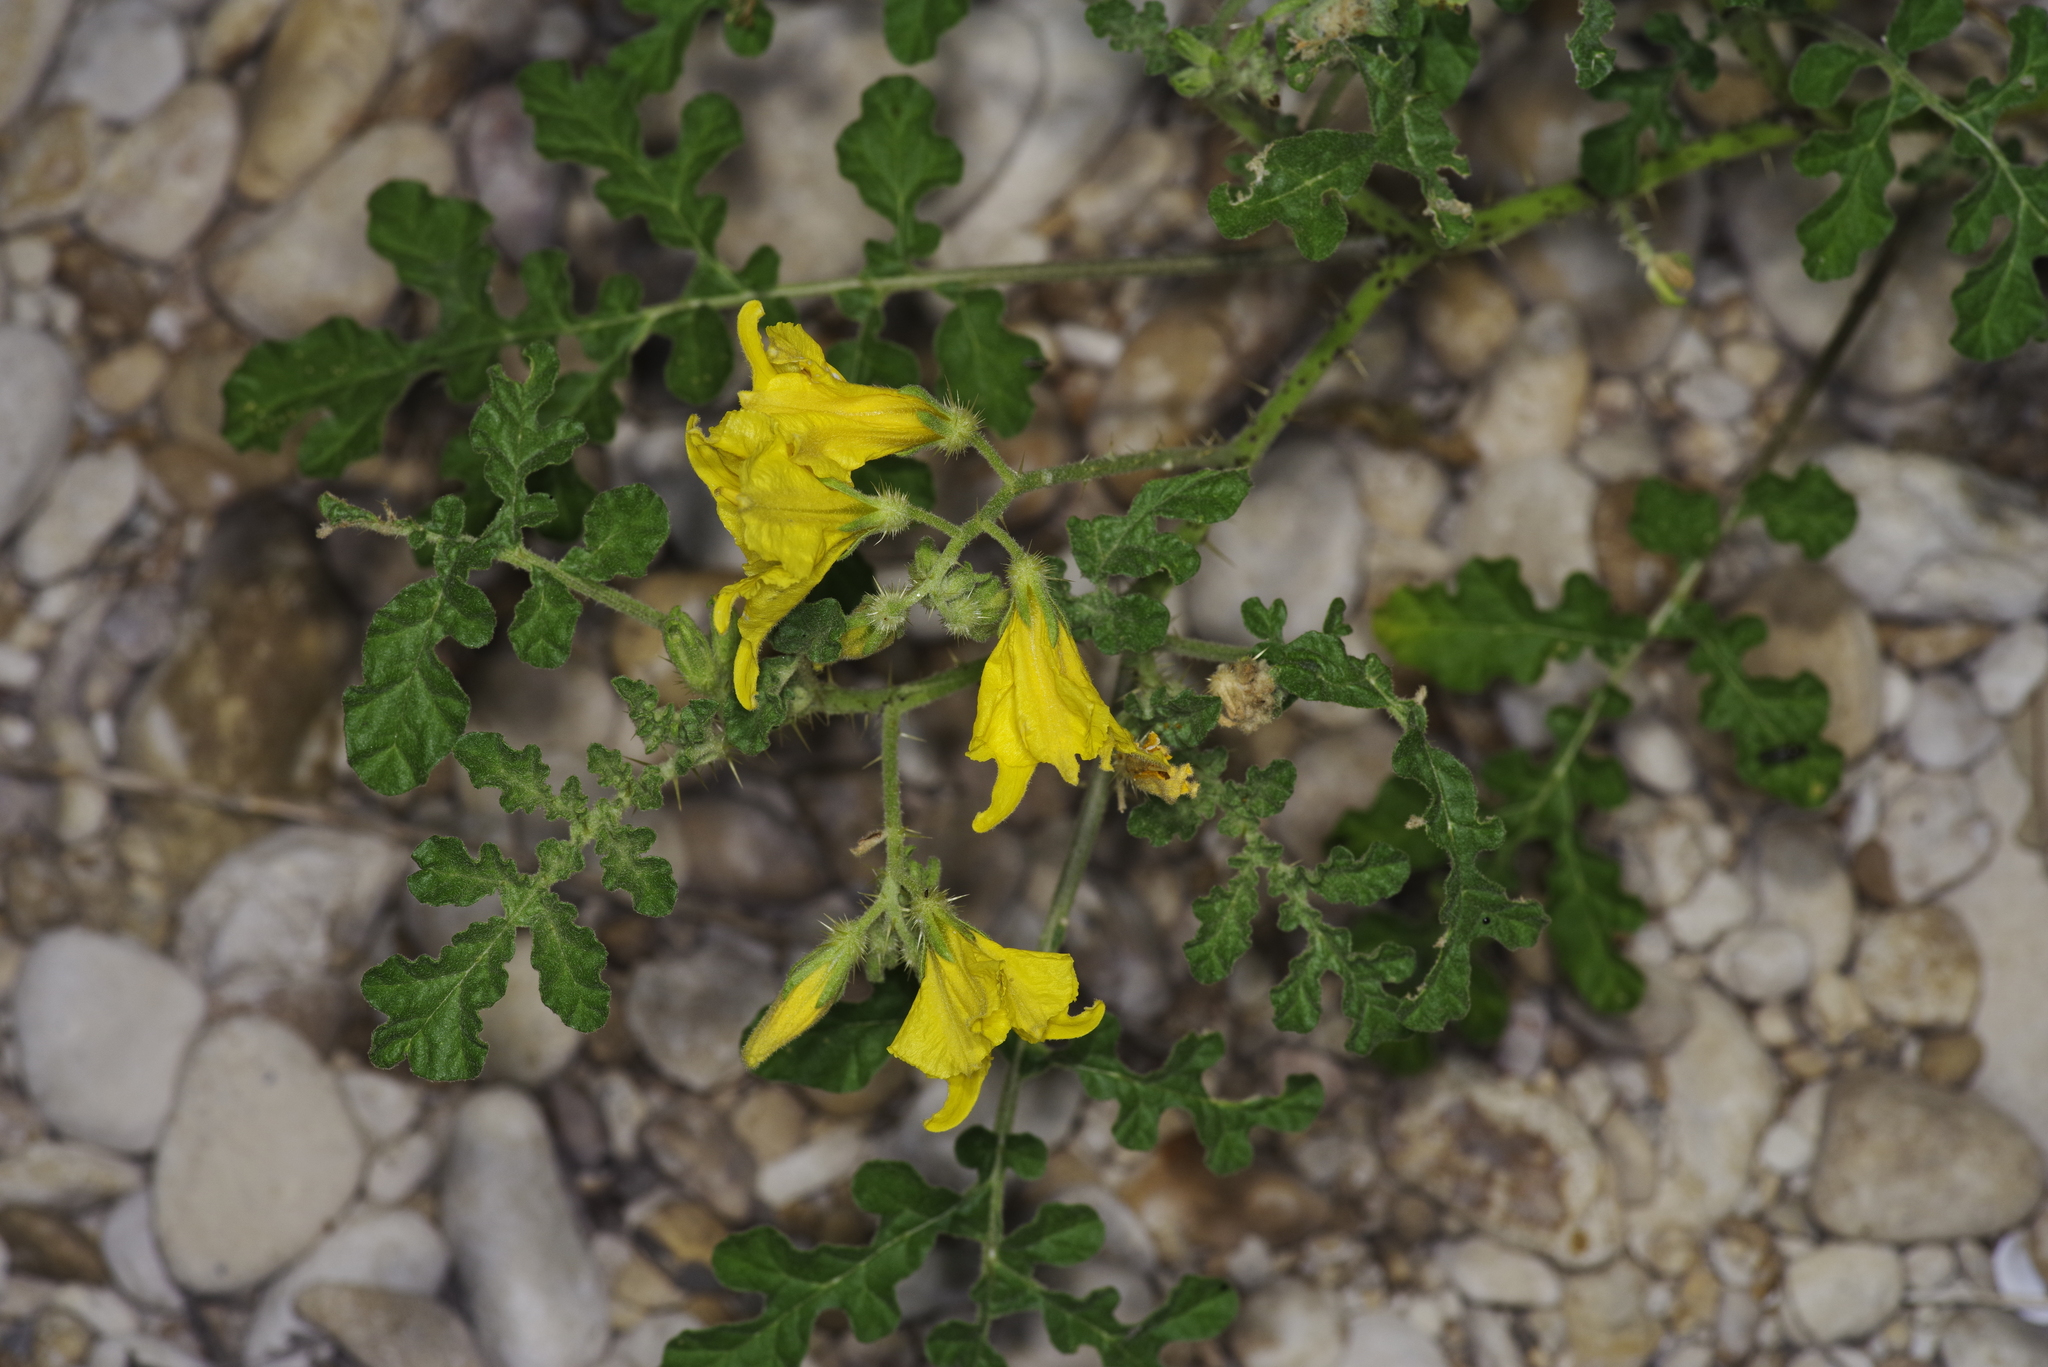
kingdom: Plantae
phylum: Tracheophyta
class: Magnoliopsida
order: Solanales
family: Solanaceae
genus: Solanum
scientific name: Solanum angustifolium
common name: Buffalobur nightshade
